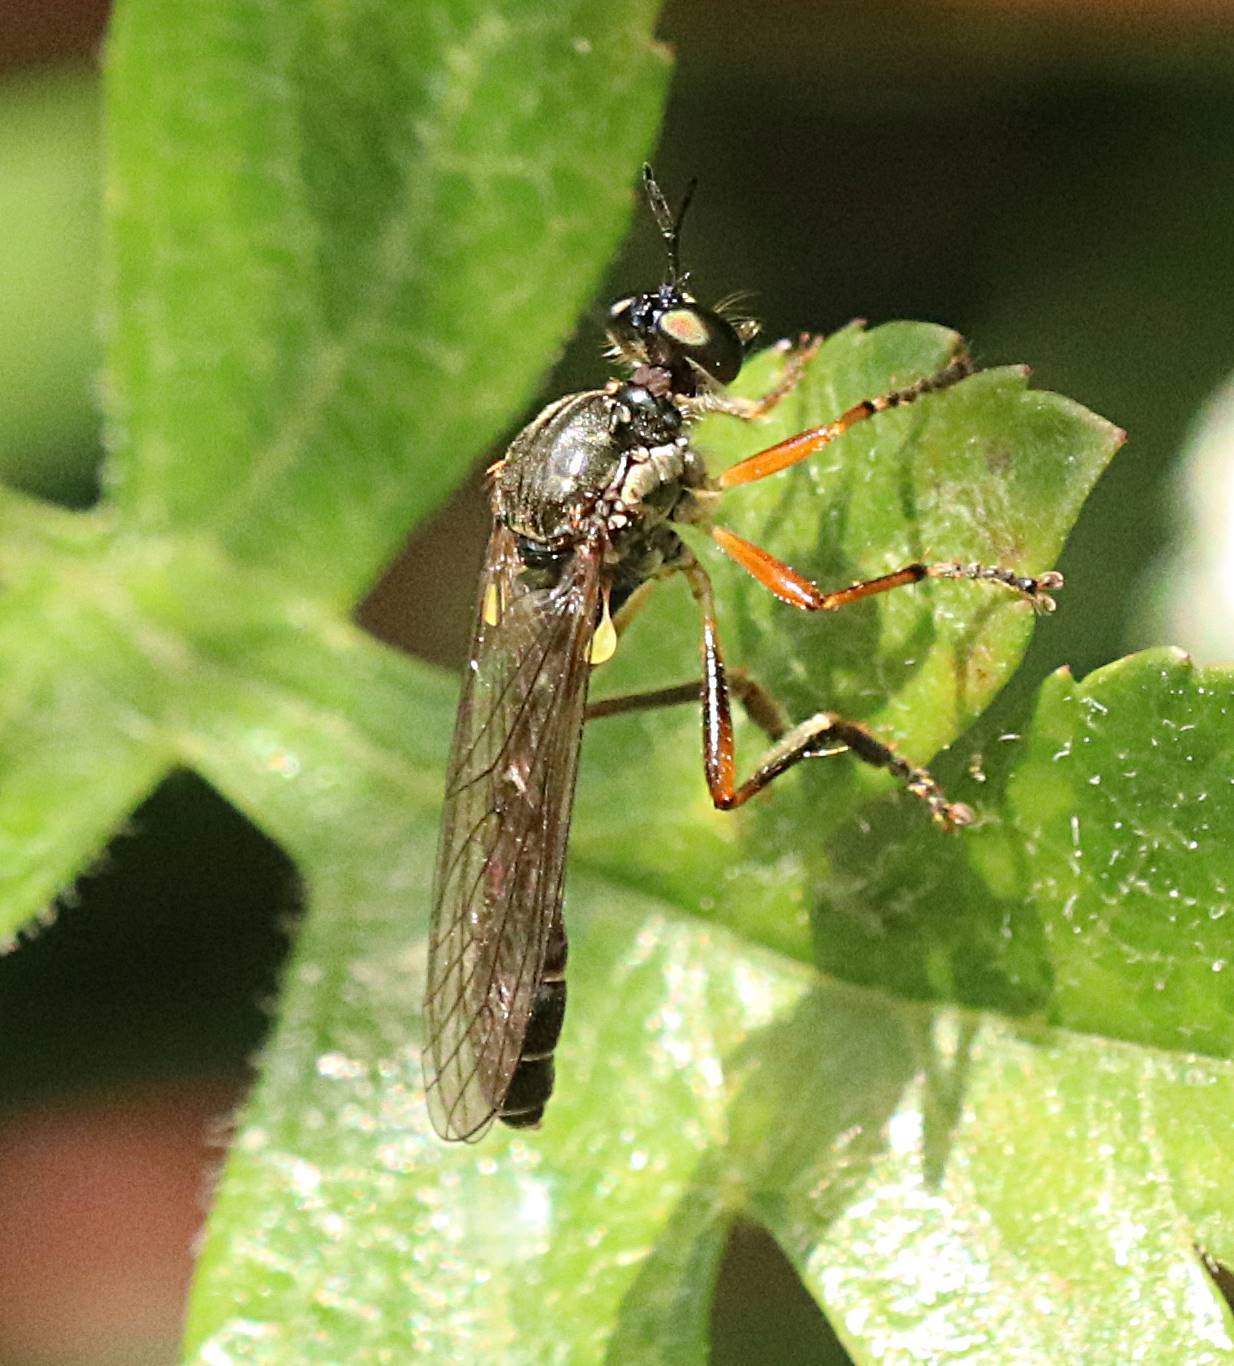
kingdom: Animalia
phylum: Arthropoda
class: Insecta
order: Diptera
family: Asilidae
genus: Dioctria
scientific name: Dioctria hyalipennis
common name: Stripe-legged robberfly
